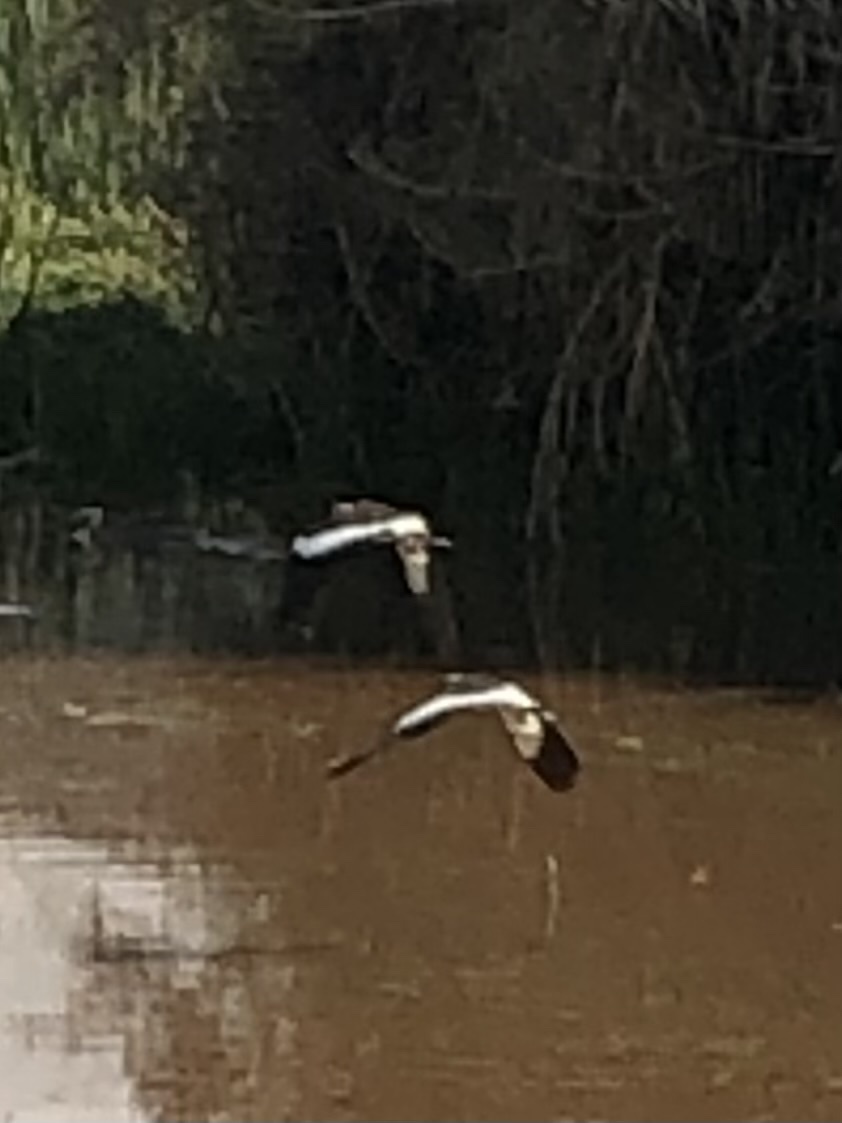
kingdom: Animalia
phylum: Chordata
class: Aves
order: Charadriiformes
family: Charadriidae
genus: Vanellus
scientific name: Vanellus resplendens
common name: Andean lapwing
